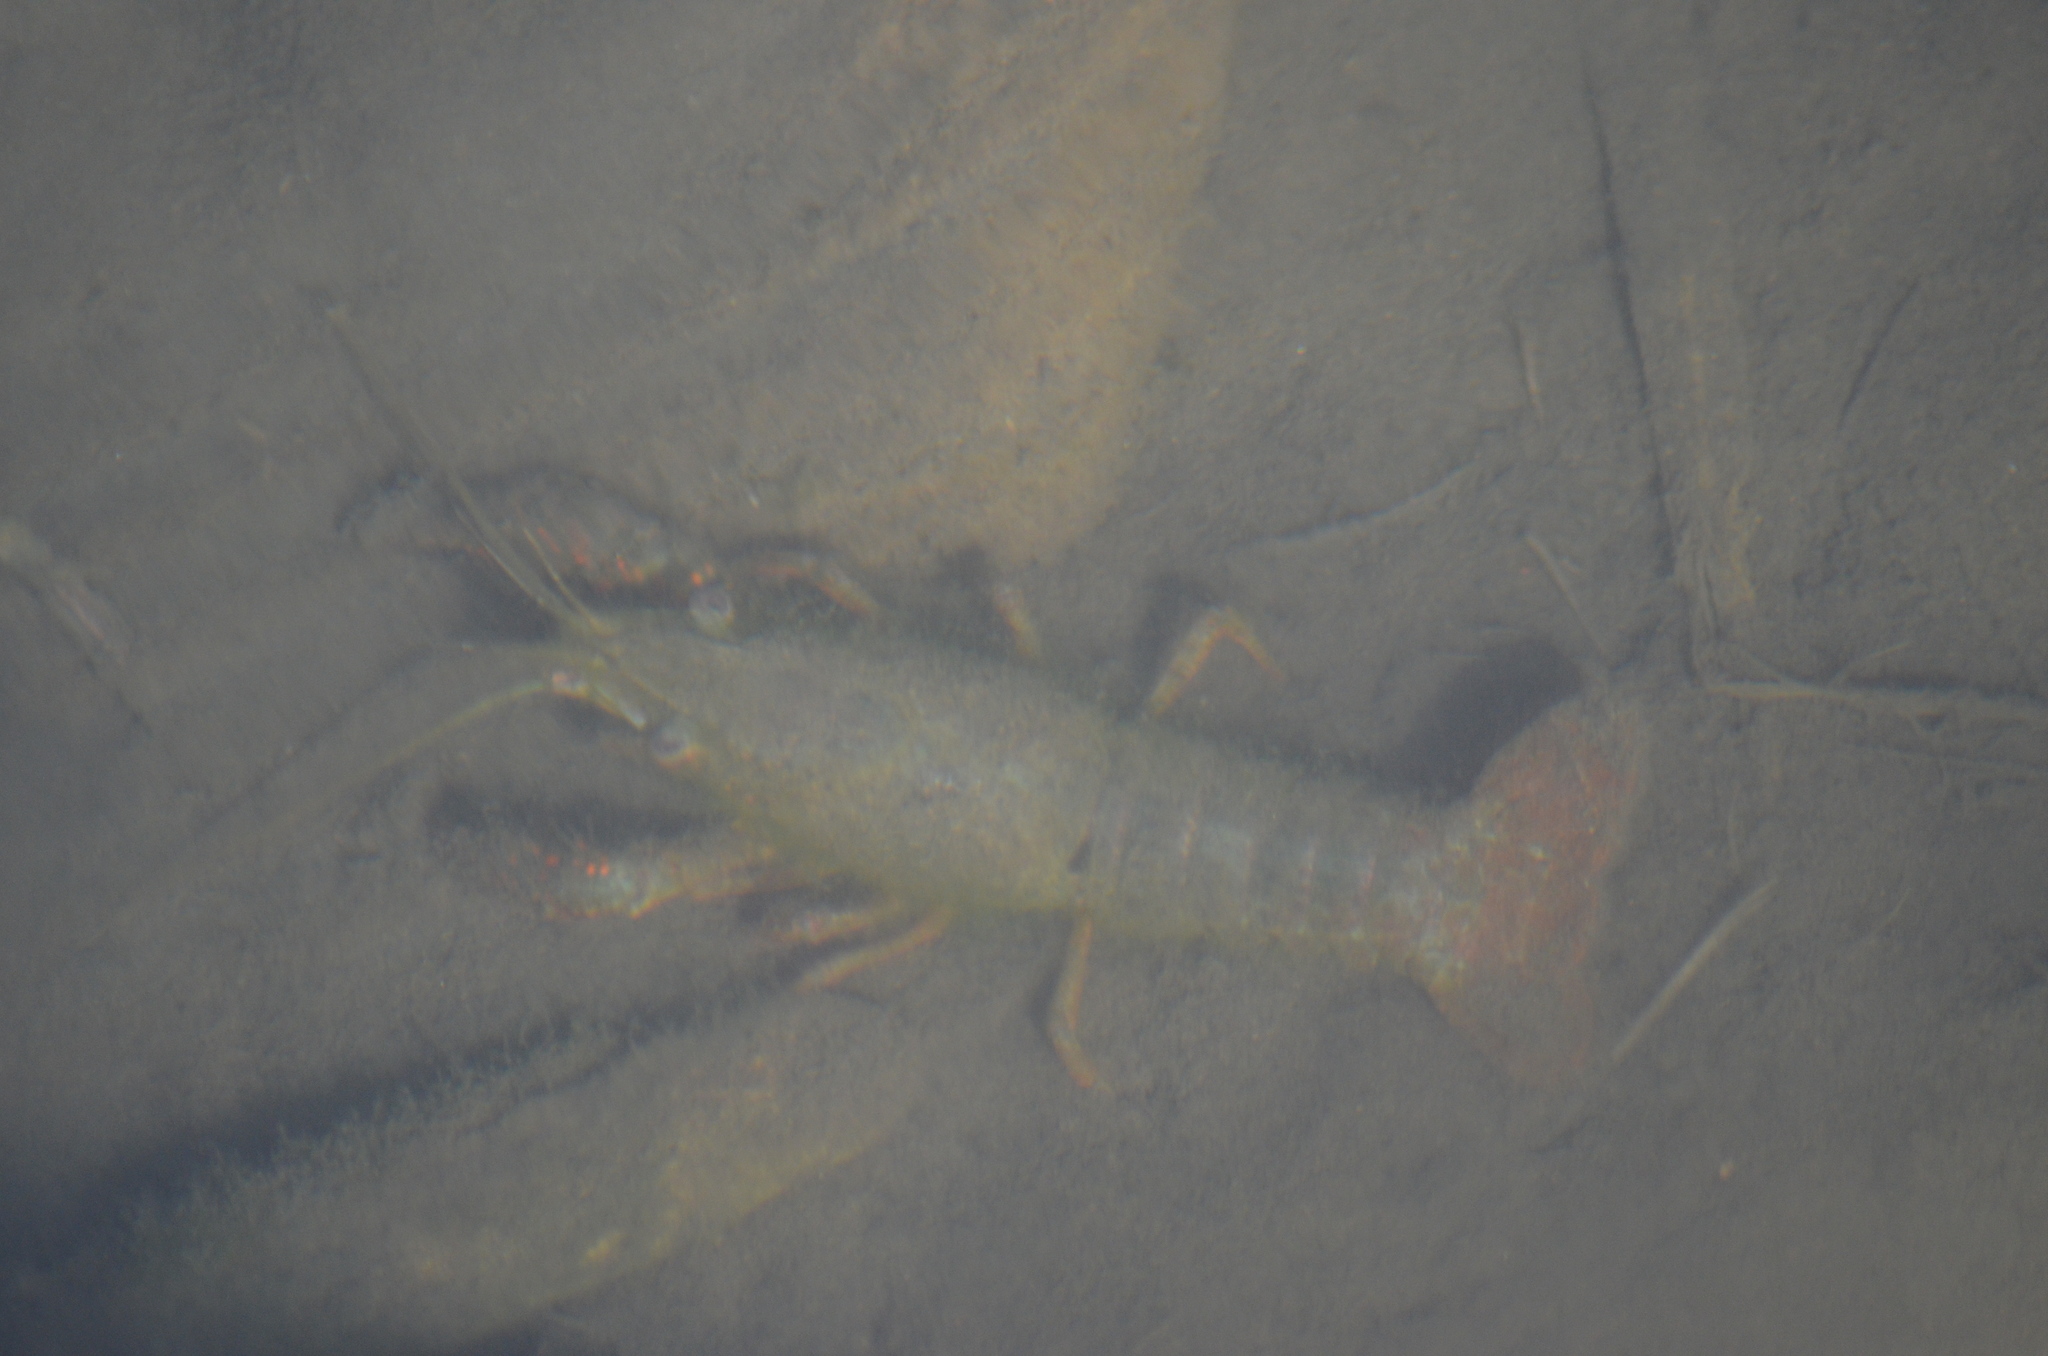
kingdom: Animalia
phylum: Arthropoda
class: Malacostraca
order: Decapoda
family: Cambaridae
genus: Procambarus
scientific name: Procambarus clarkii
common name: Red swamp crayfish
